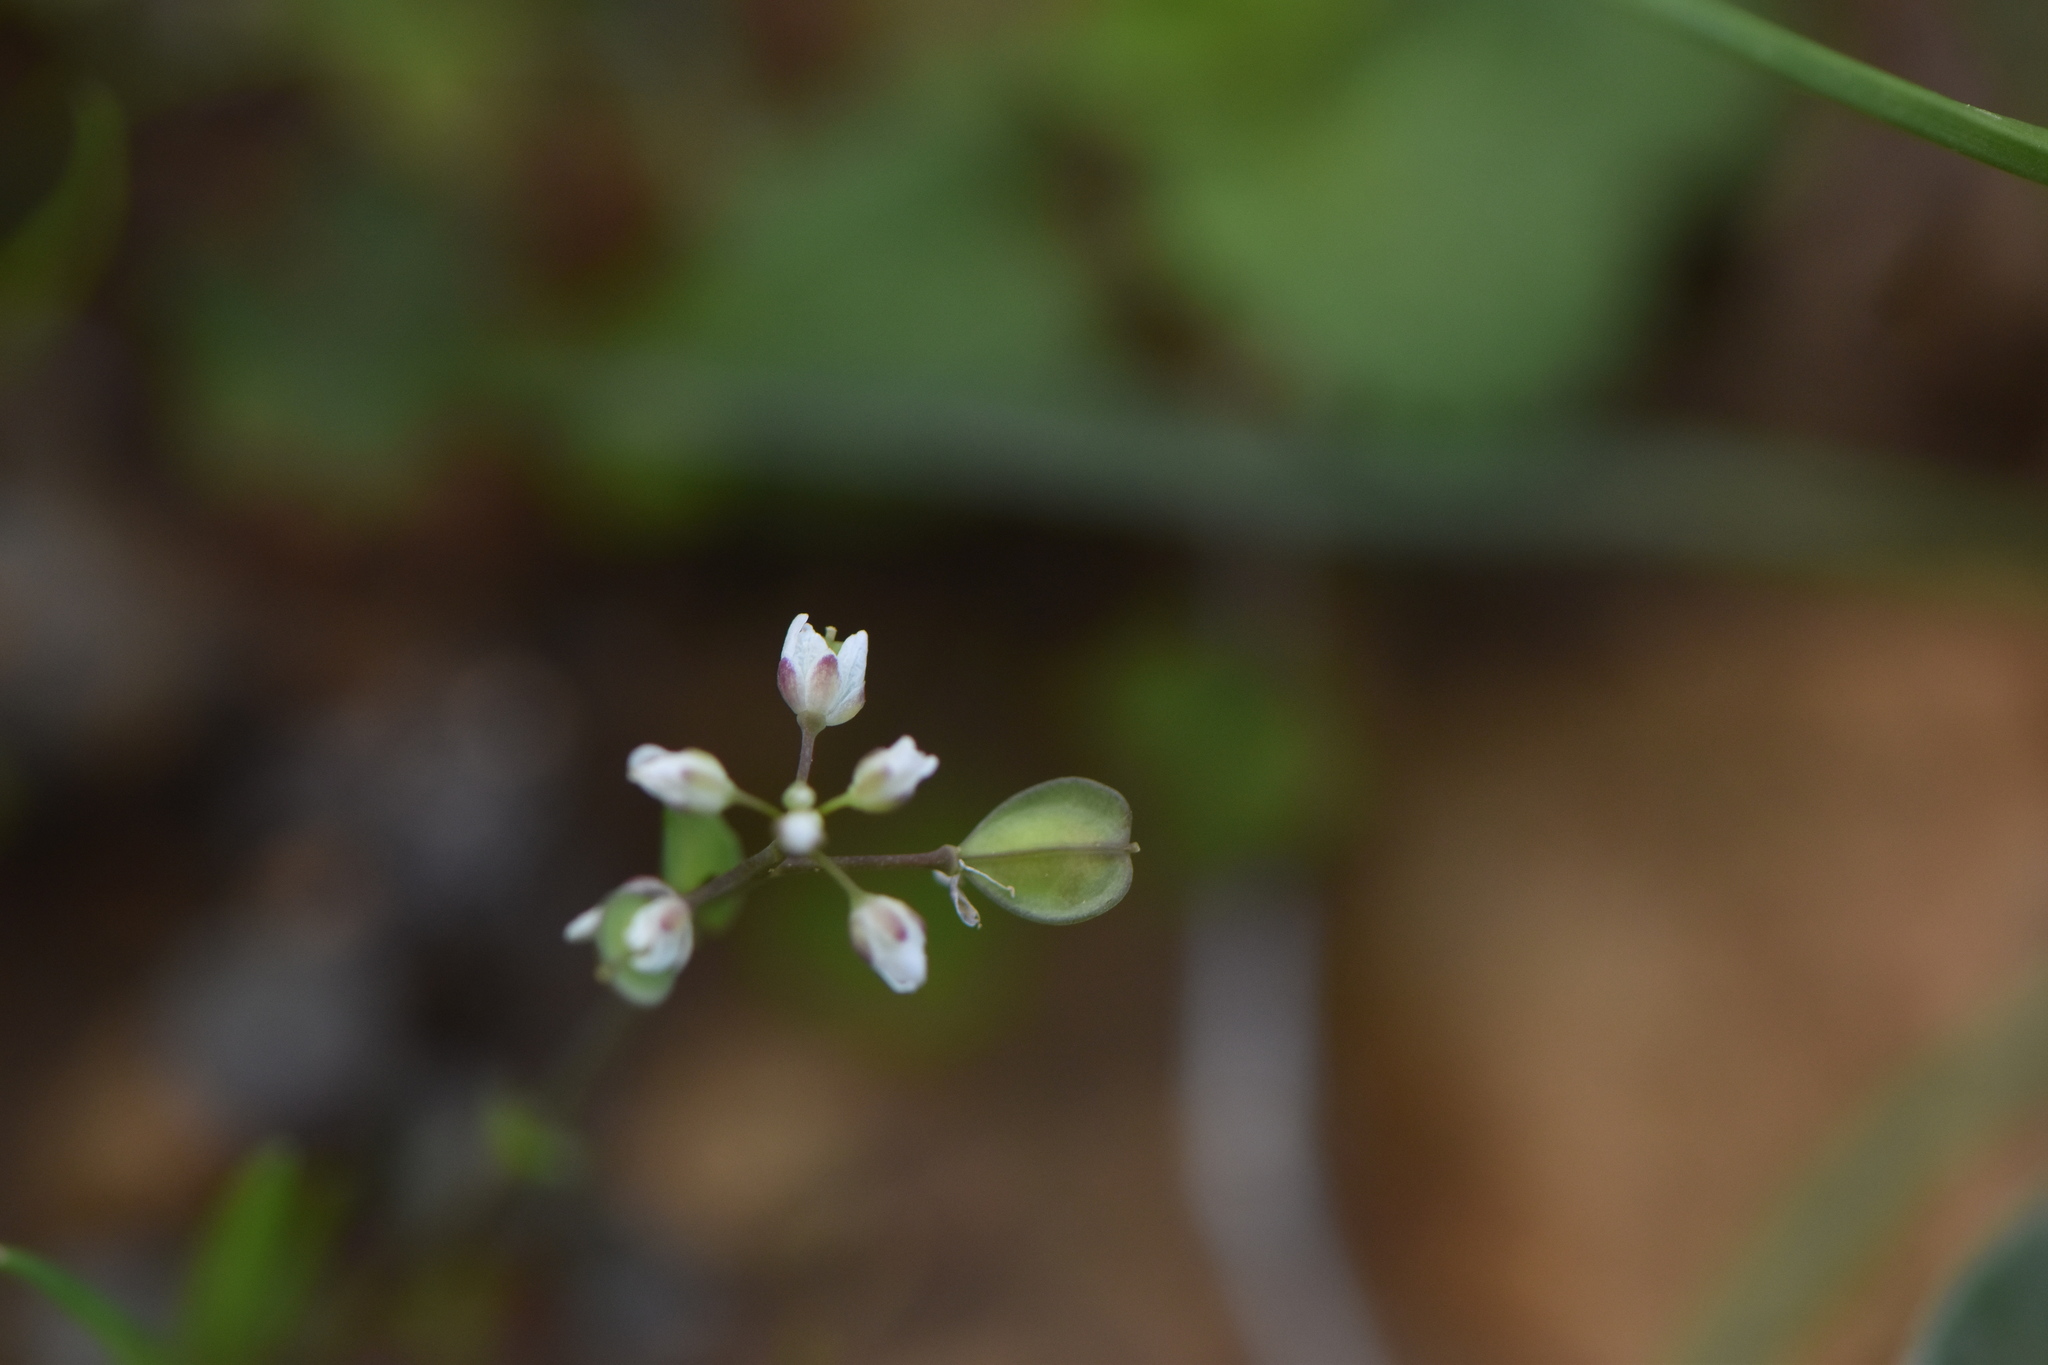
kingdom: Plantae
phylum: Tracheophyta
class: Magnoliopsida
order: Brassicales
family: Brassicaceae
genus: Capsella
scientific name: Capsella bursa-pastoris
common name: Shepherd's purse
